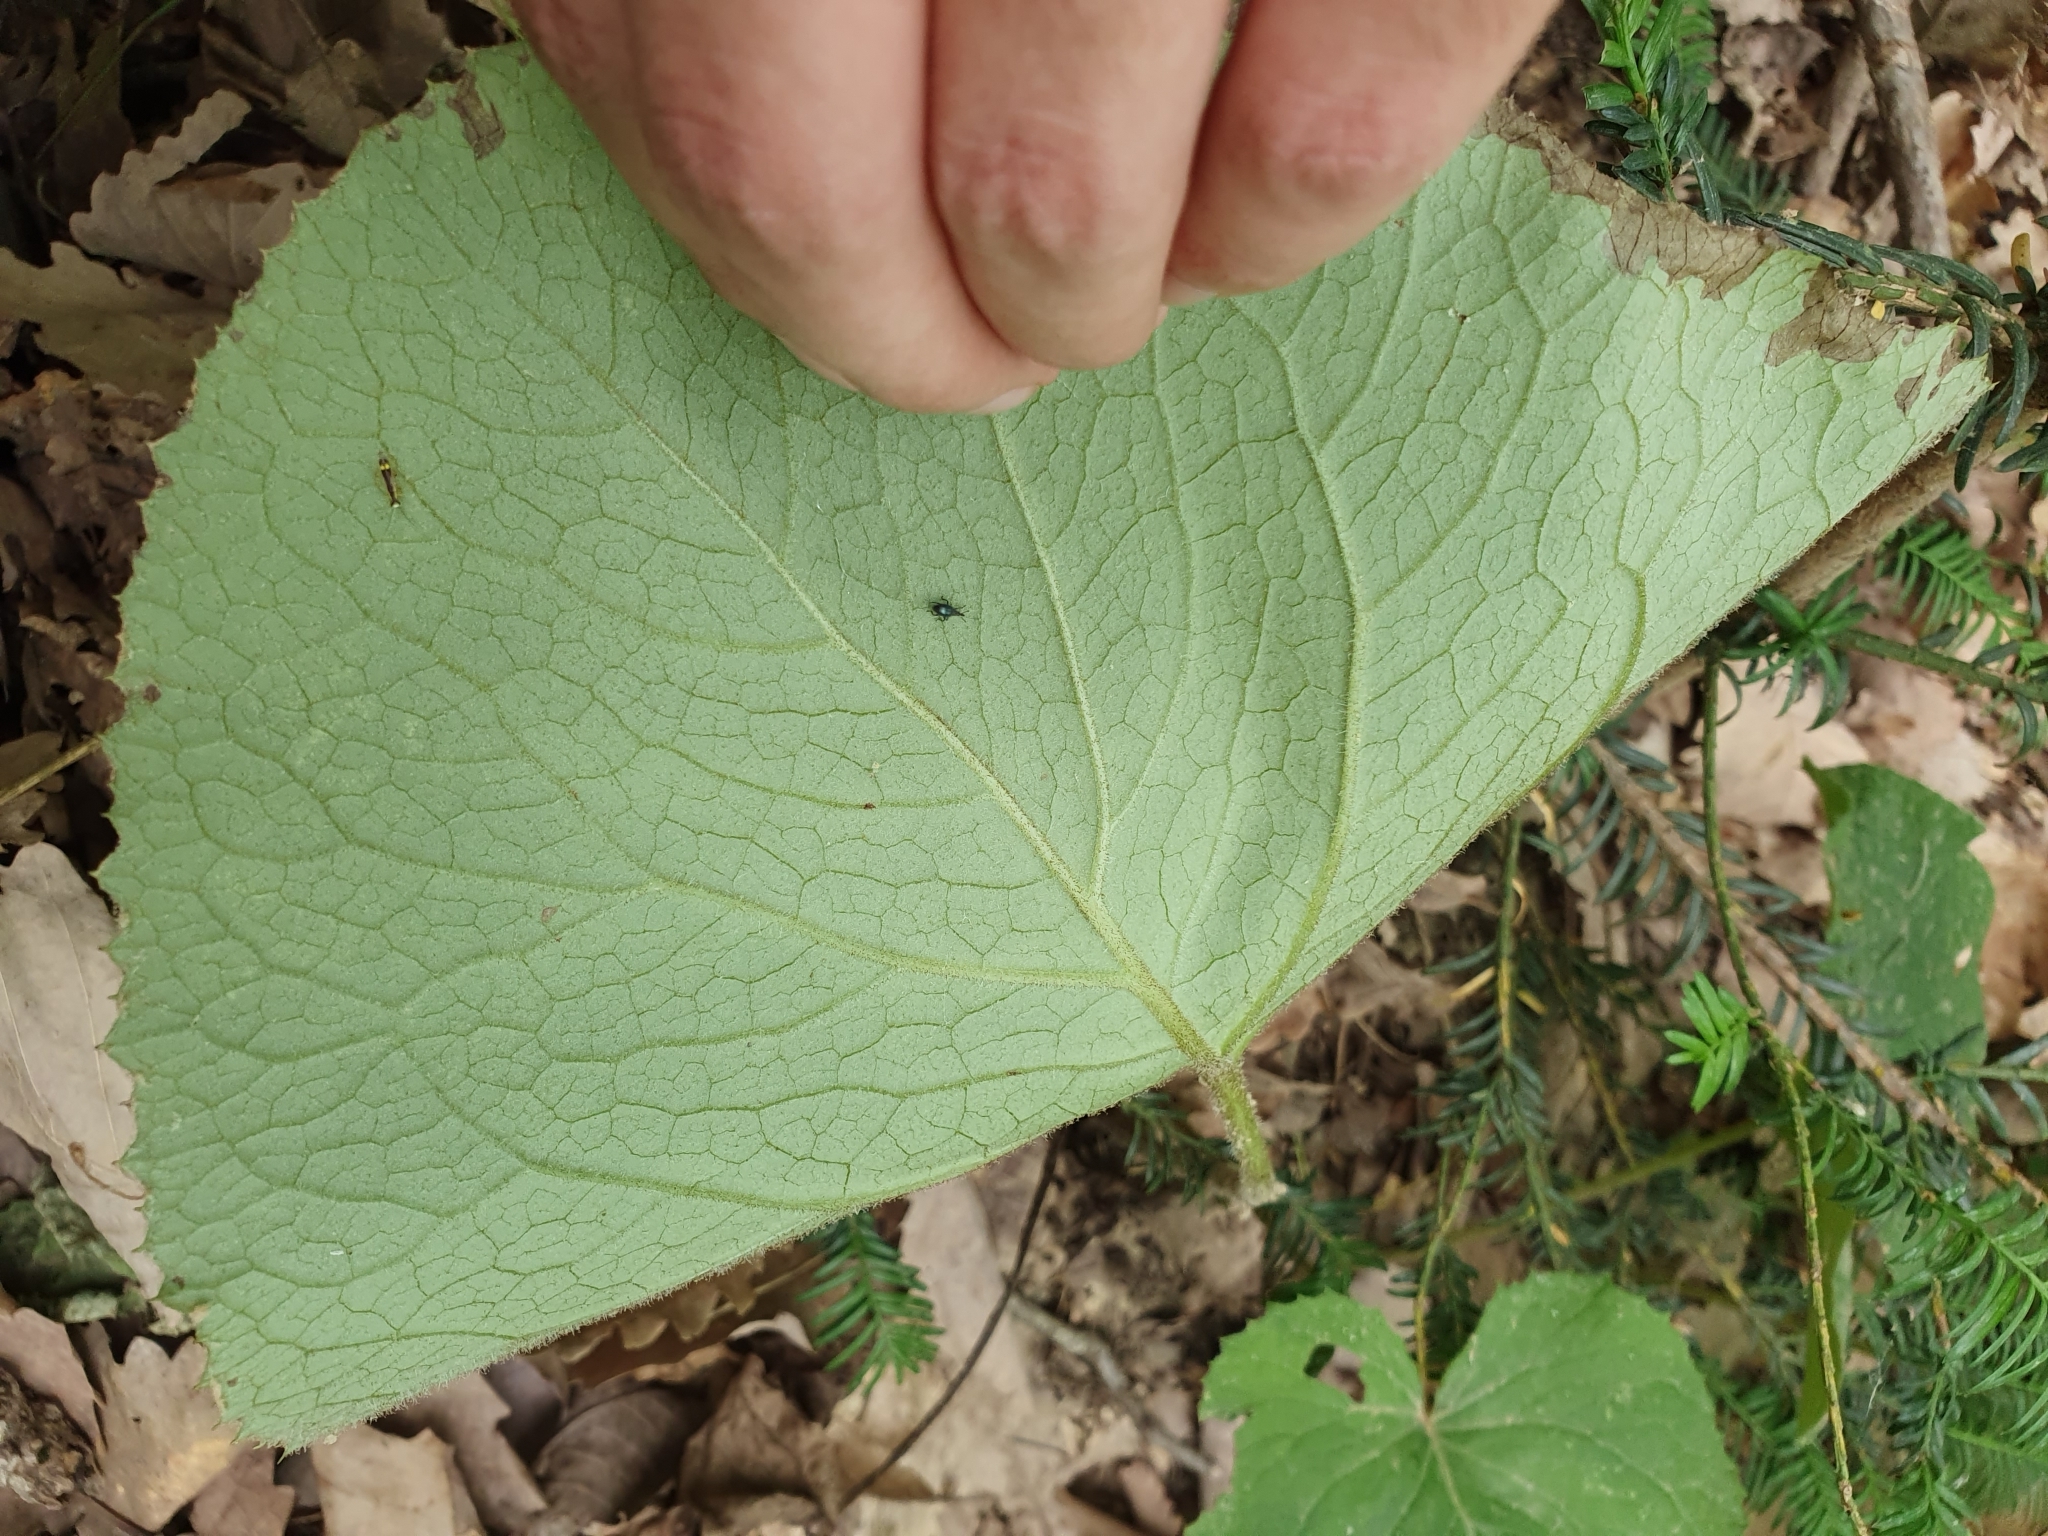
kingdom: Plantae
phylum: Tracheophyta
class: Magnoliopsida
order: Asterales
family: Asteraceae
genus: Petasites
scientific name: Petasites pyrenaicus
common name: Winter heliotrope
